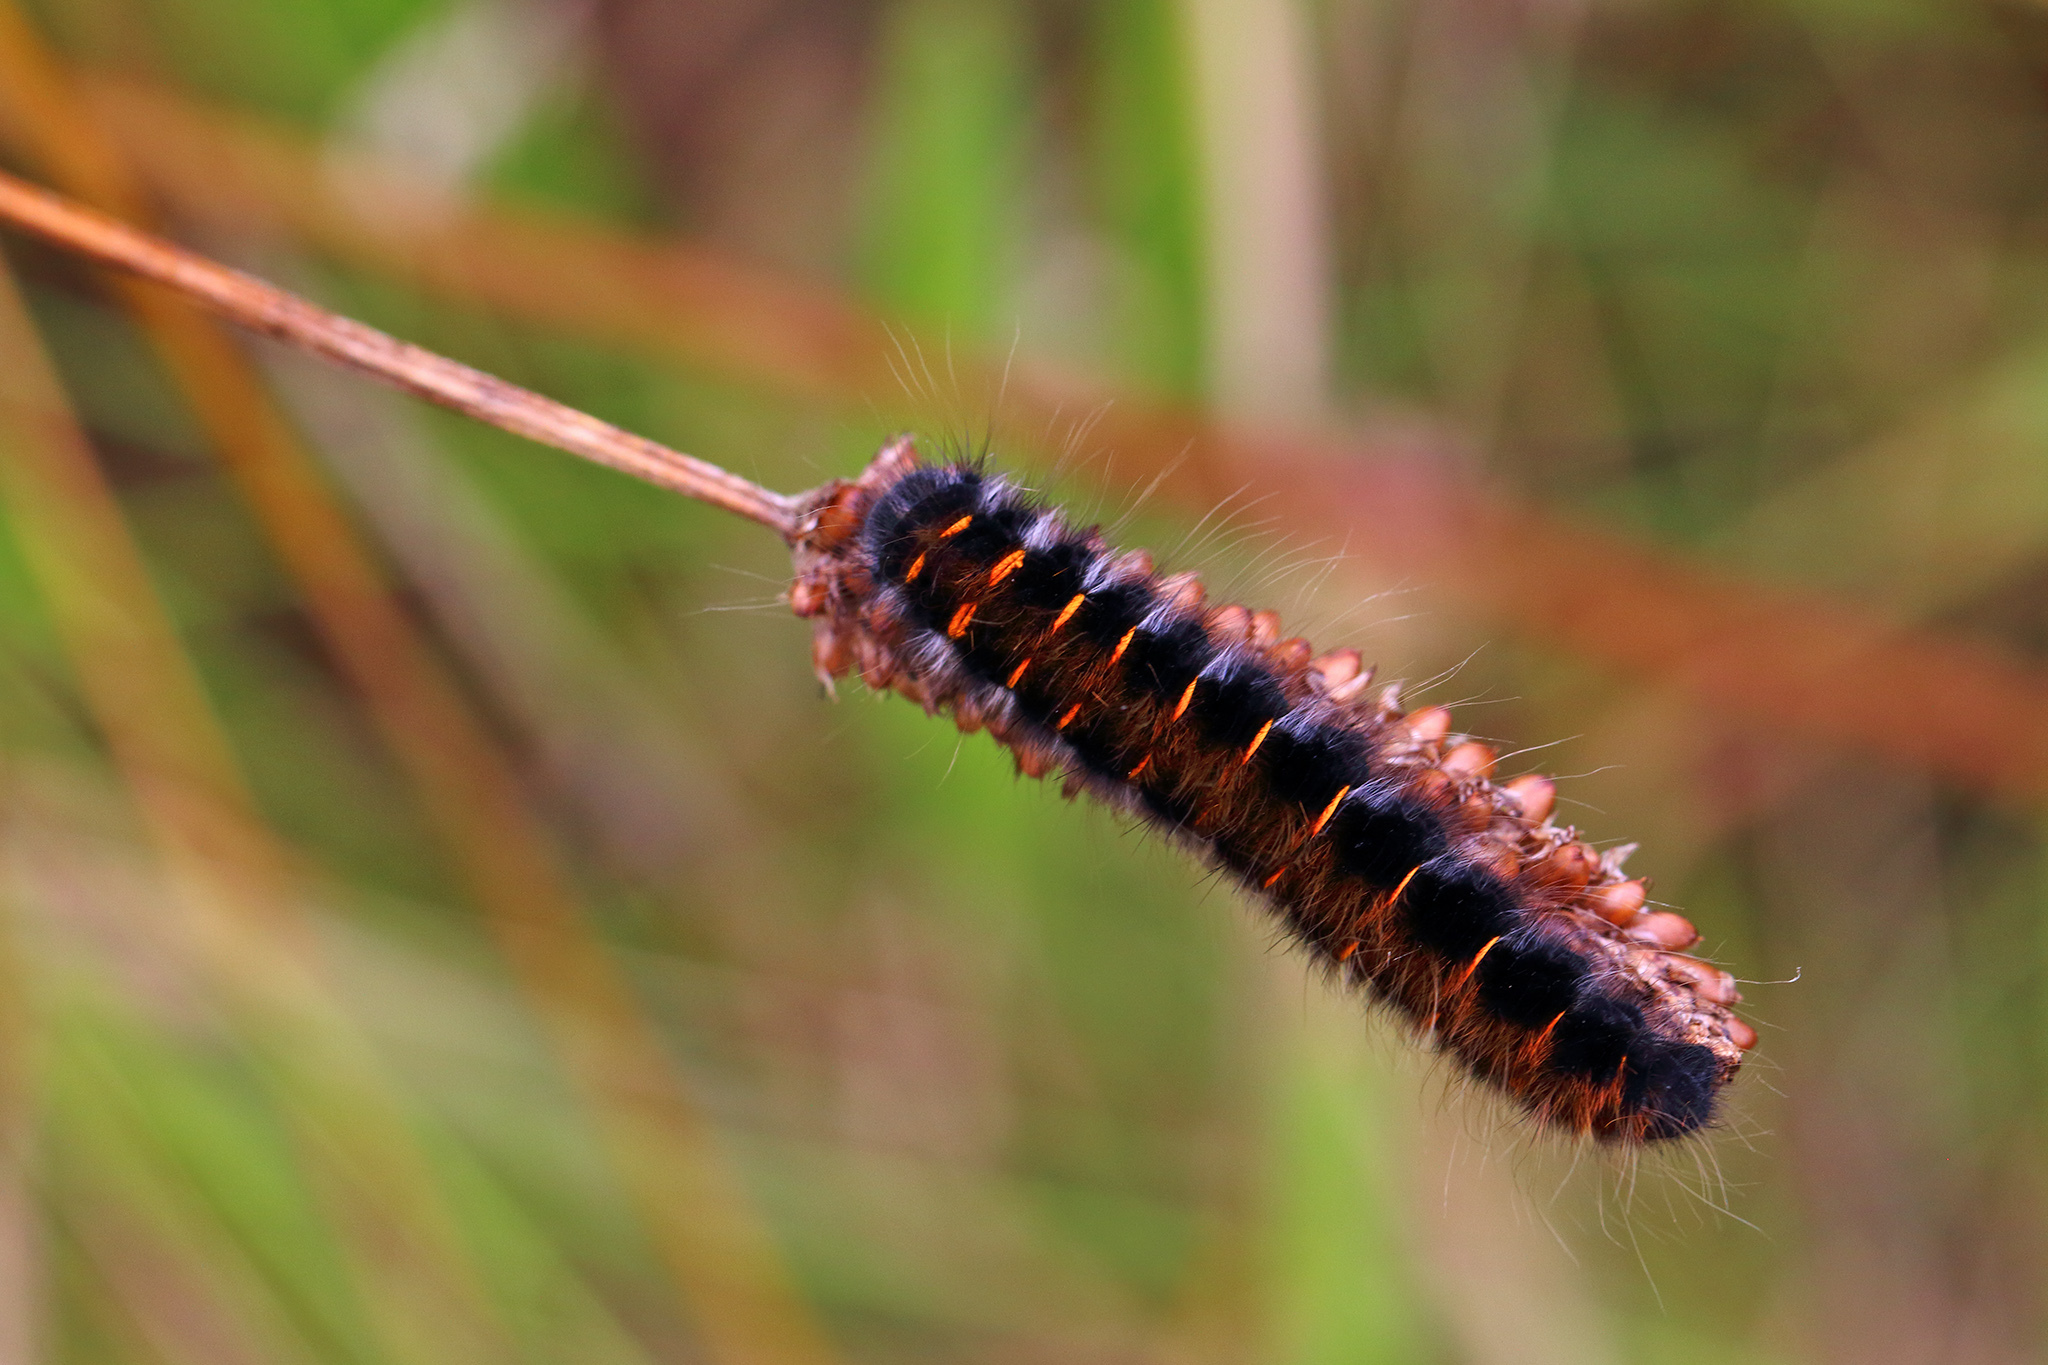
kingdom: Animalia
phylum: Arthropoda
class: Insecta
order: Lepidoptera
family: Lasiocampidae
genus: Macrothylacia
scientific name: Macrothylacia rubi
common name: Fox moth
